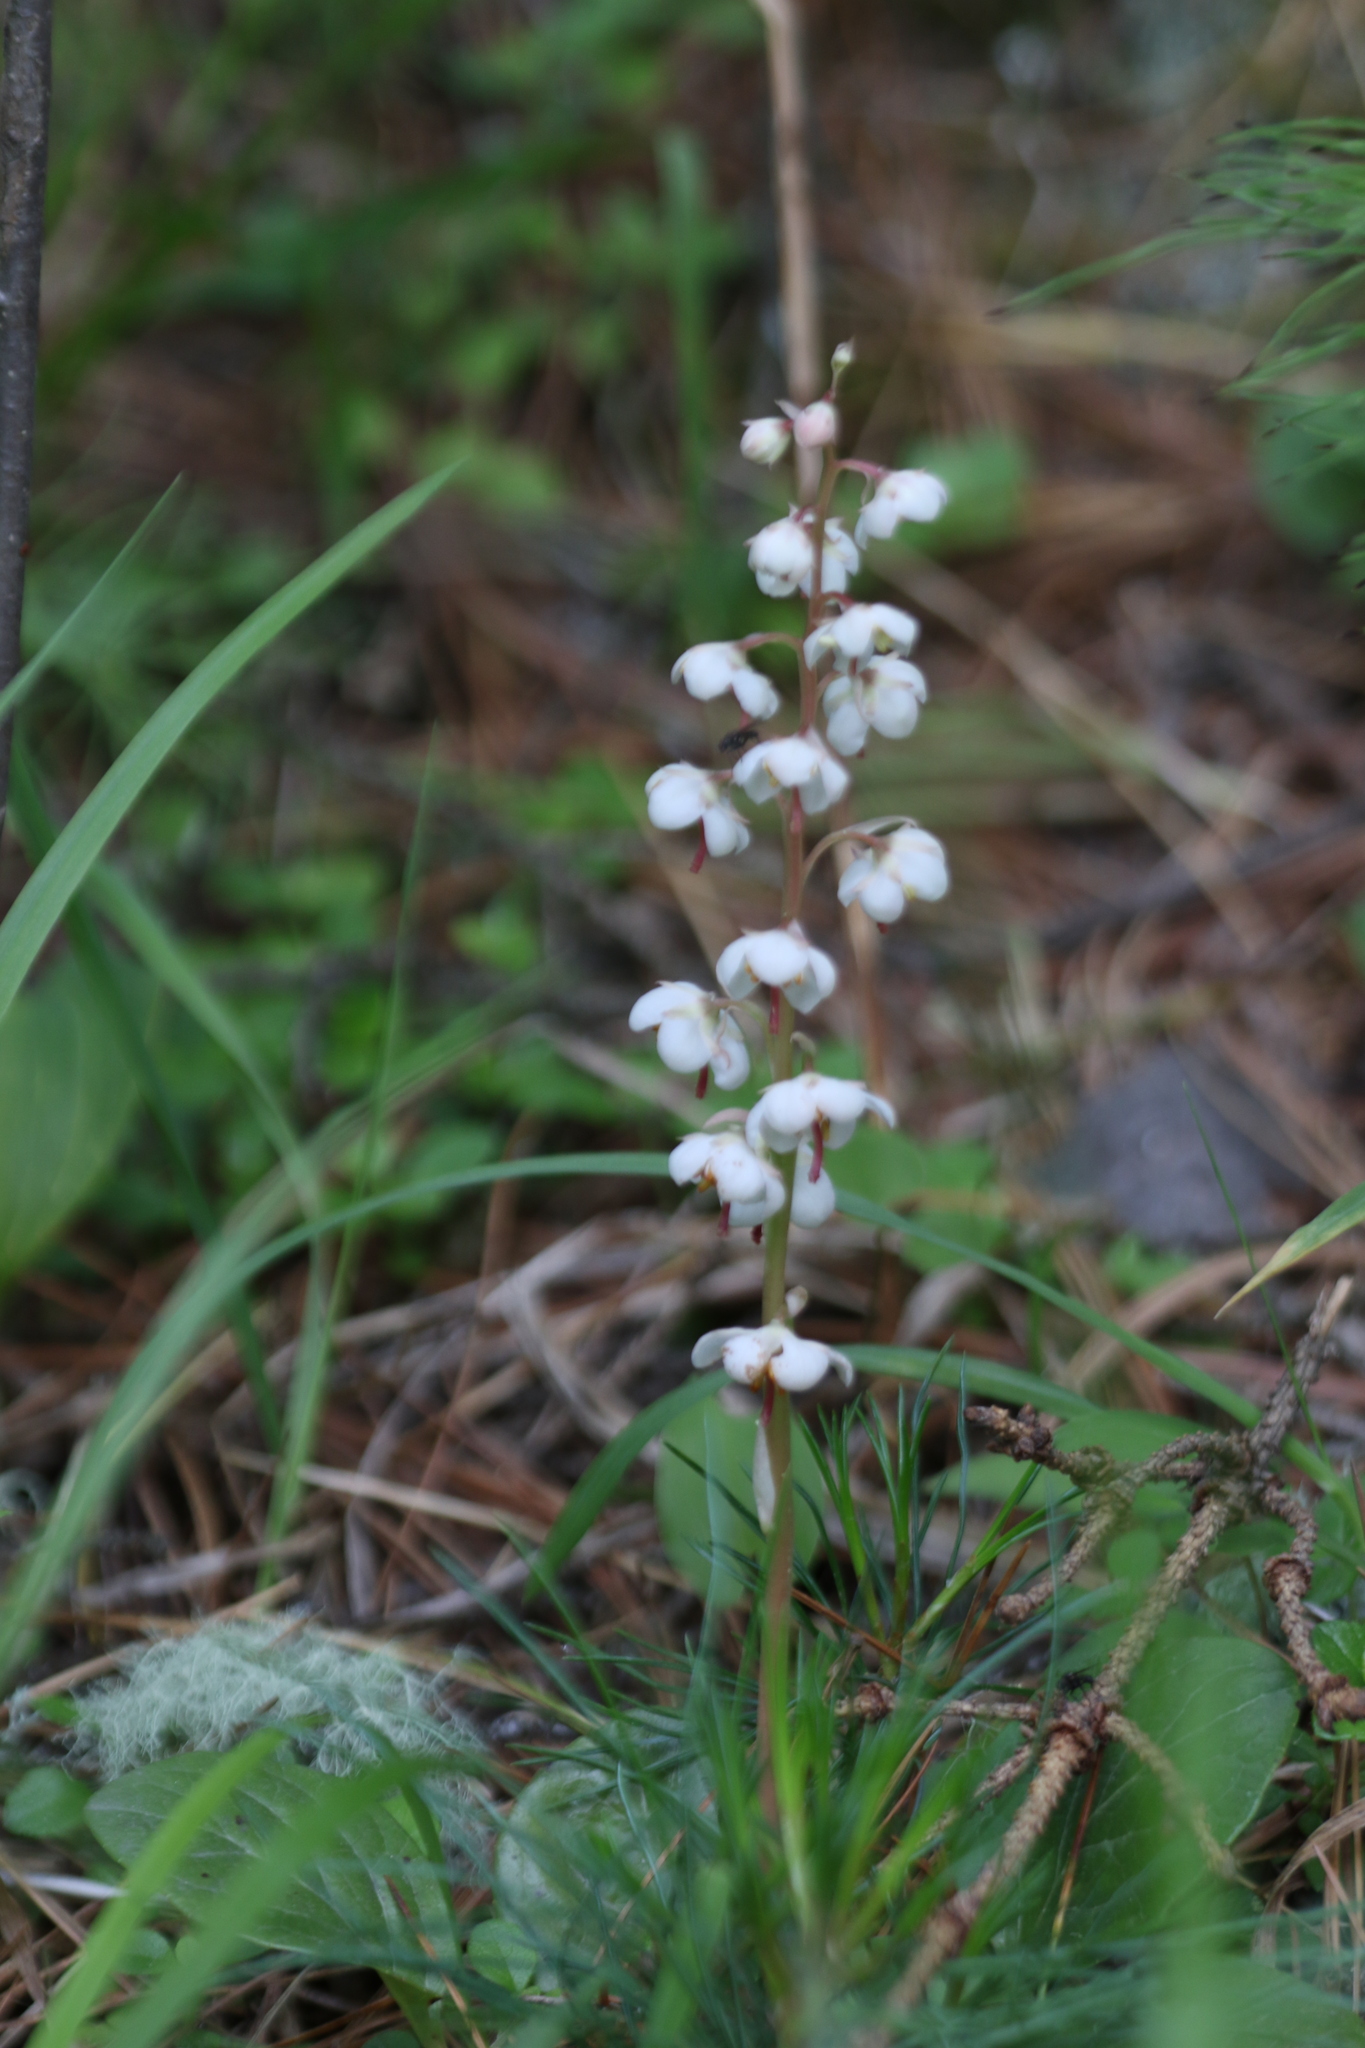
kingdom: Plantae
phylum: Tracheophyta
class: Magnoliopsida
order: Ericales
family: Ericaceae
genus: Pyrola
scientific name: Pyrola rotundifolia
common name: Round-leaved wintergreen
